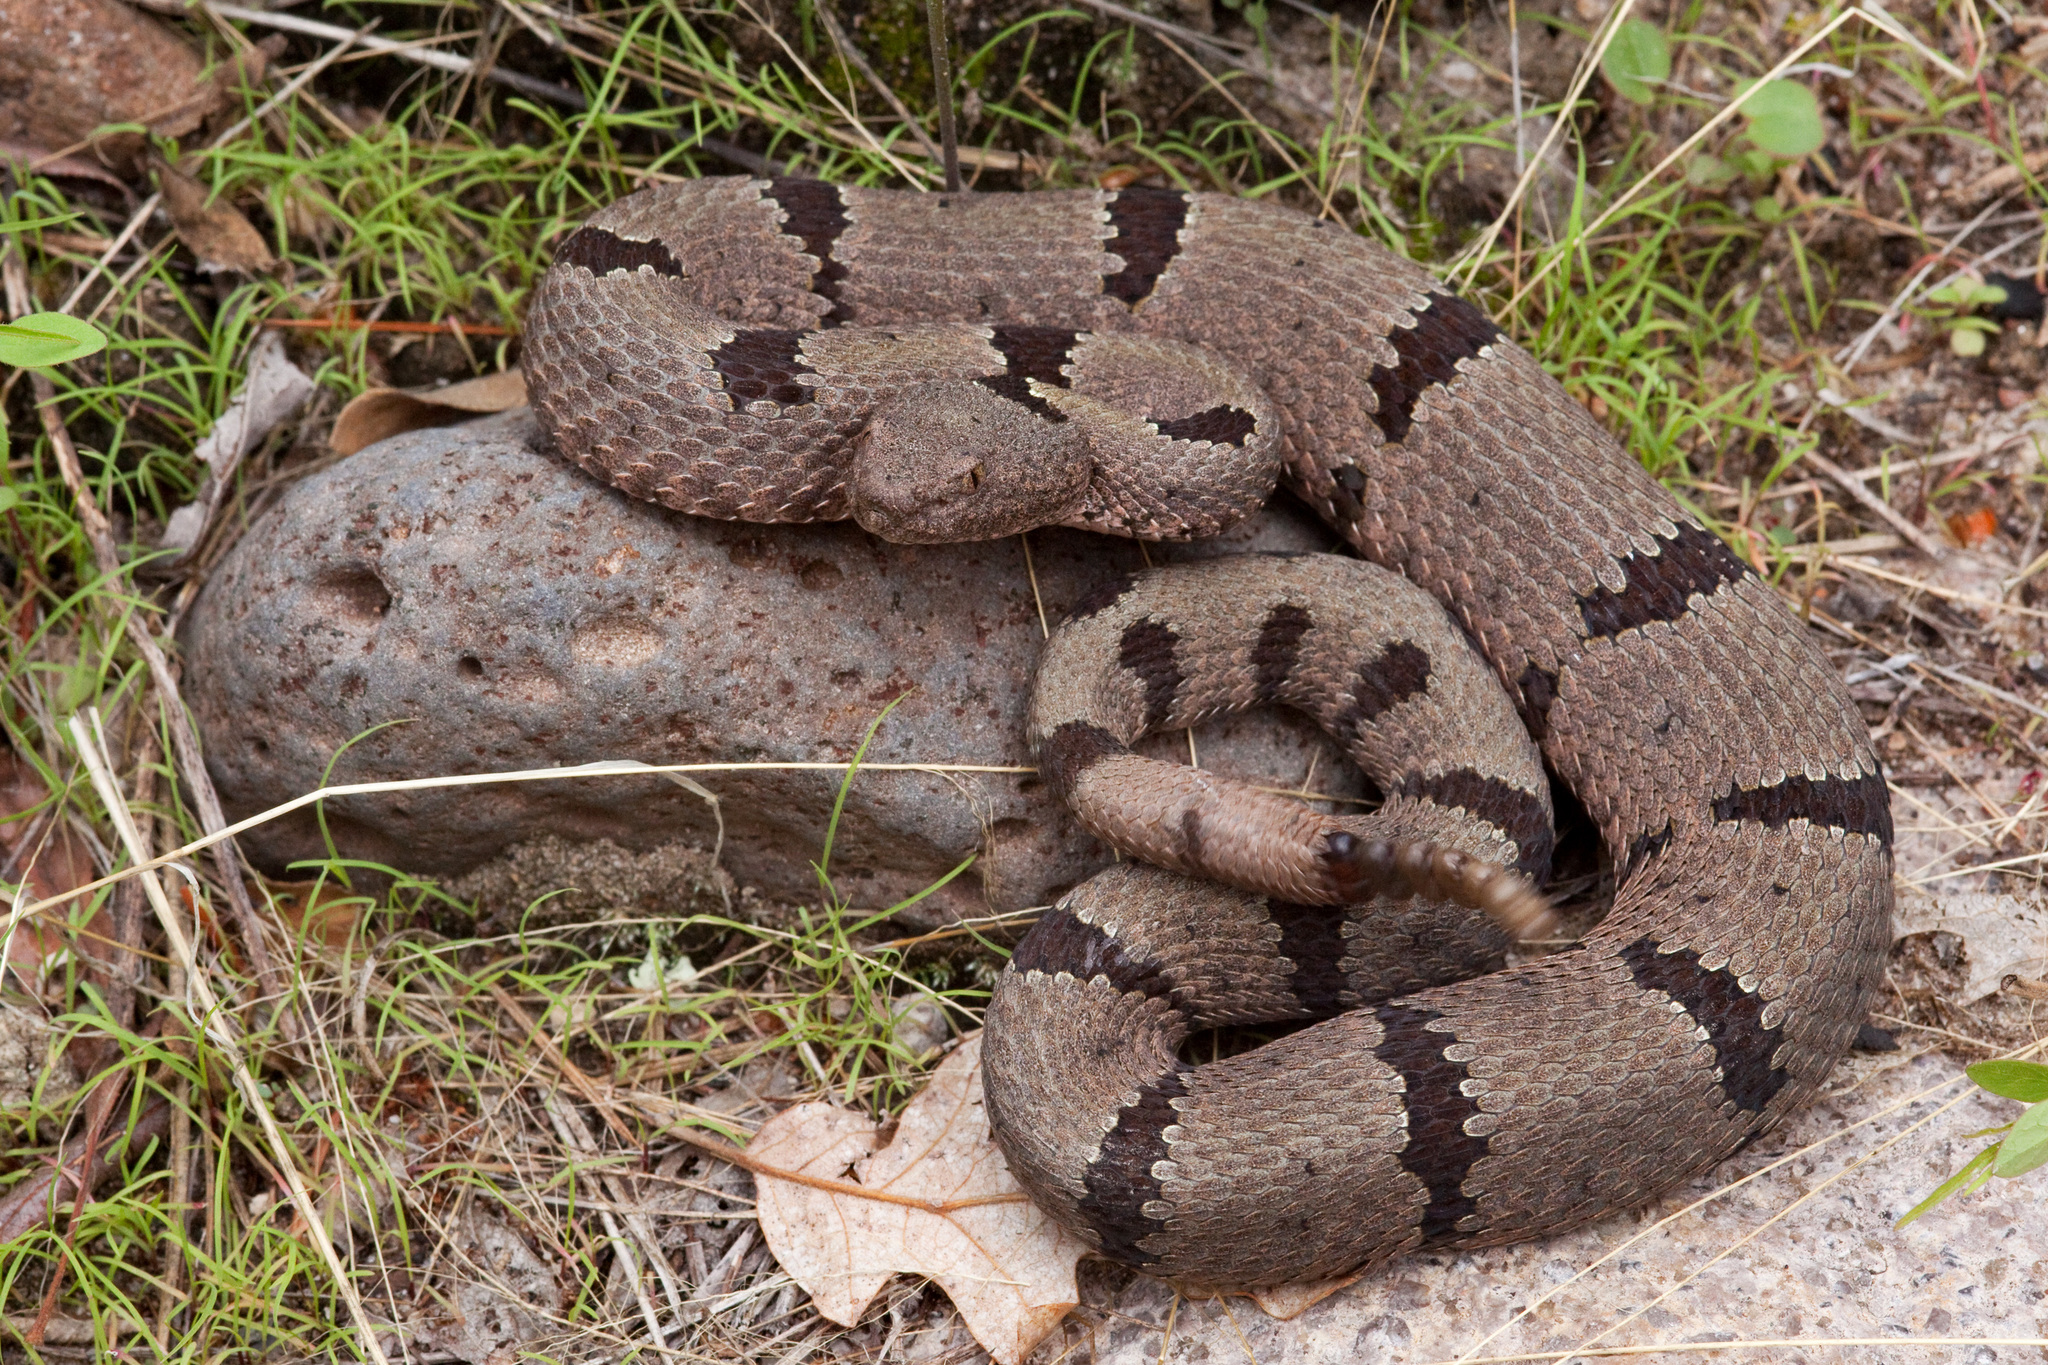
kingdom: Animalia
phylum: Chordata
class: Squamata
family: Viperidae
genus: Crotalus
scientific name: Crotalus lepidus
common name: Rock rattlesnake
